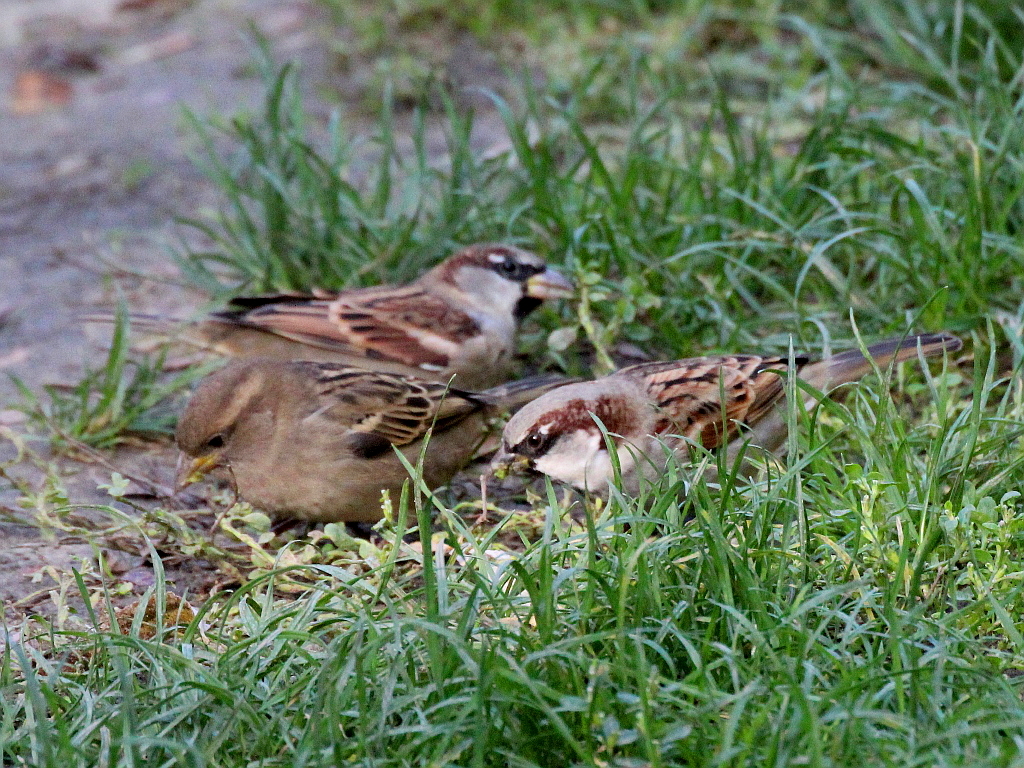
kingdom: Animalia
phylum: Chordata
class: Aves
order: Passeriformes
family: Passeridae
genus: Passer
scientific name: Passer domesticus
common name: House sparrow
